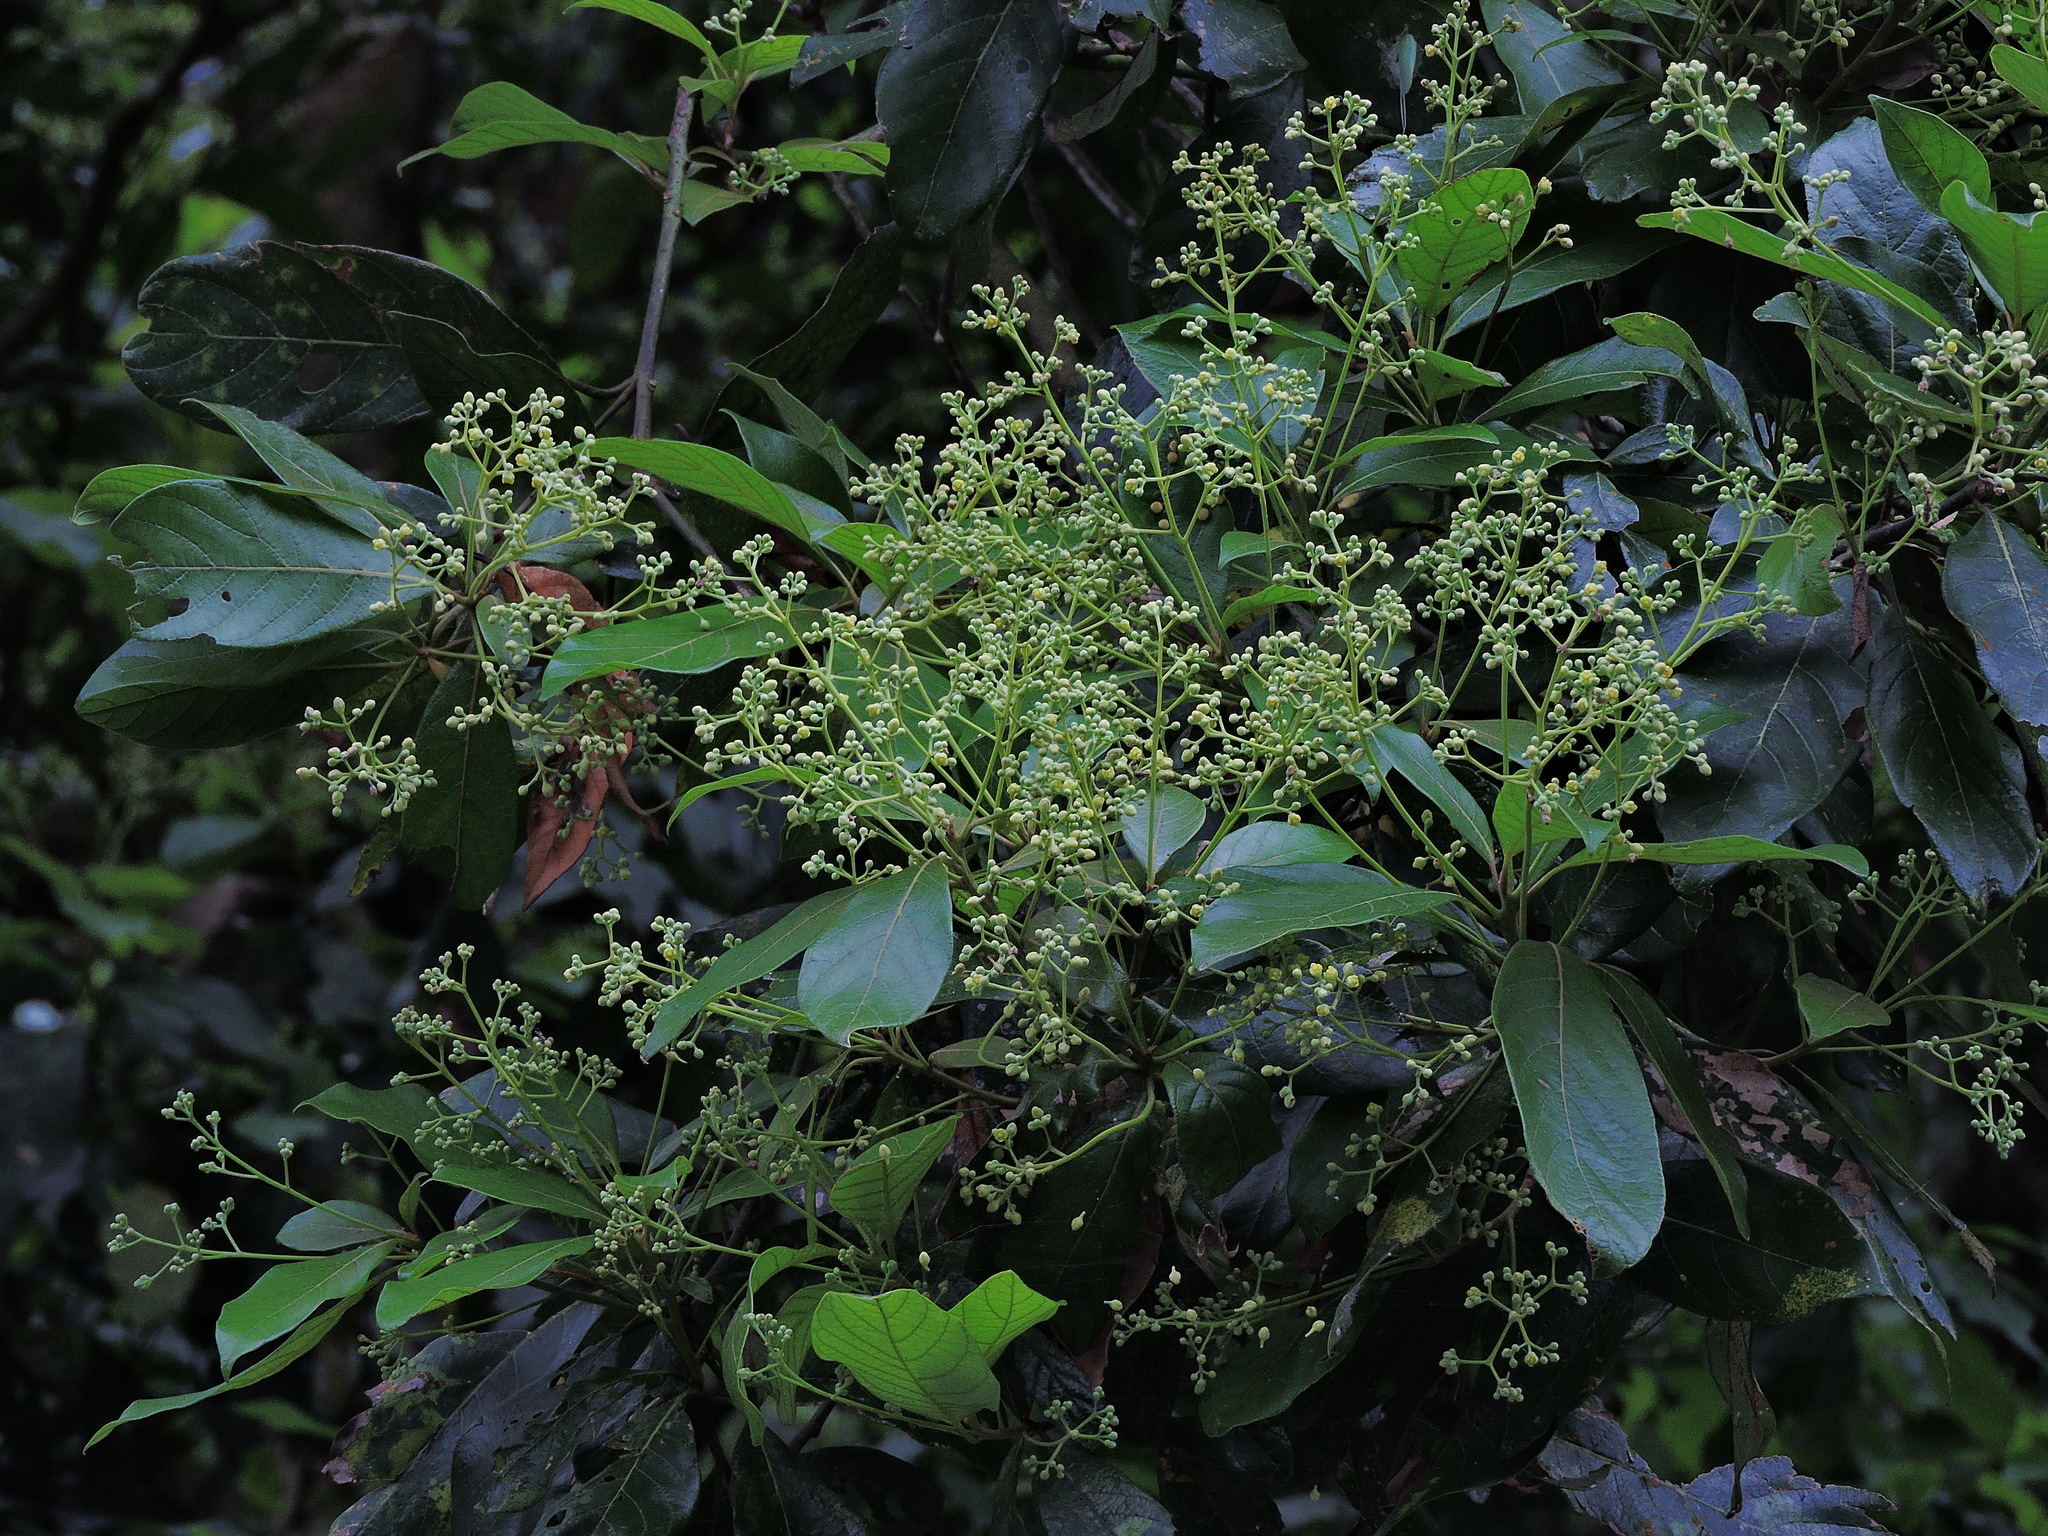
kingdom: Plantae
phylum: Tracheophyta
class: Magnoliopsida
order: Laurales
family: Lauraceae
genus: Phoebe
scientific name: Phoebe formosana
